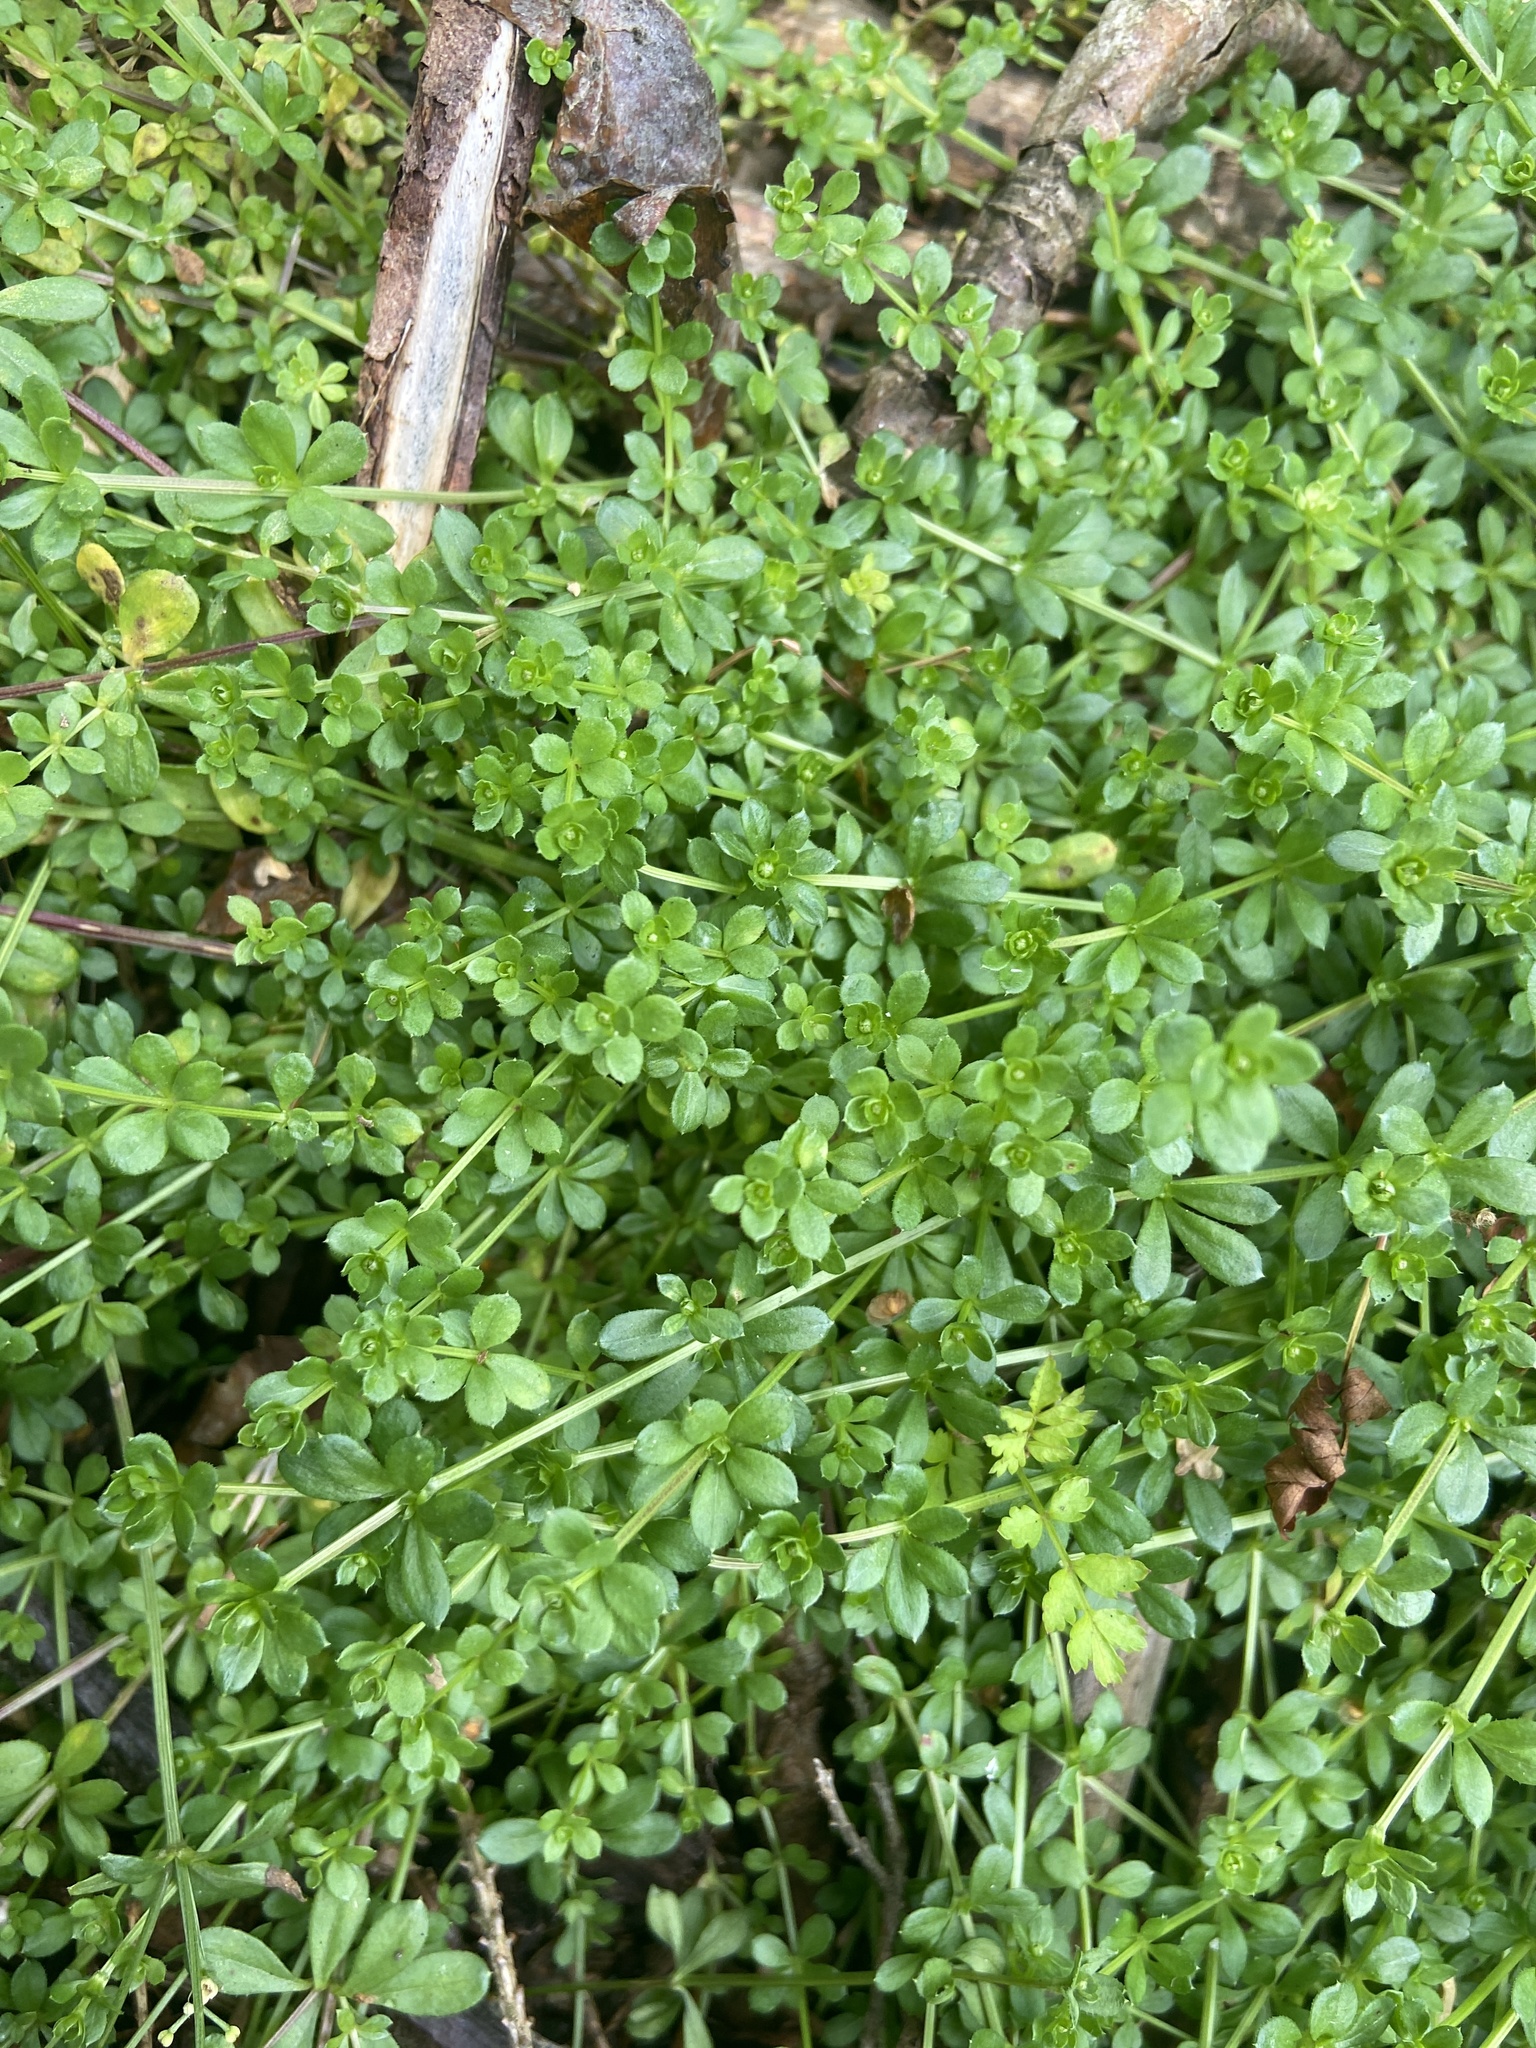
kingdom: Plantae
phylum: Tracheophyta
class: Magnoliopsida
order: Gentianales
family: Rubiaceae
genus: Galium
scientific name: Galium saxatile
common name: Heath bedstraw
